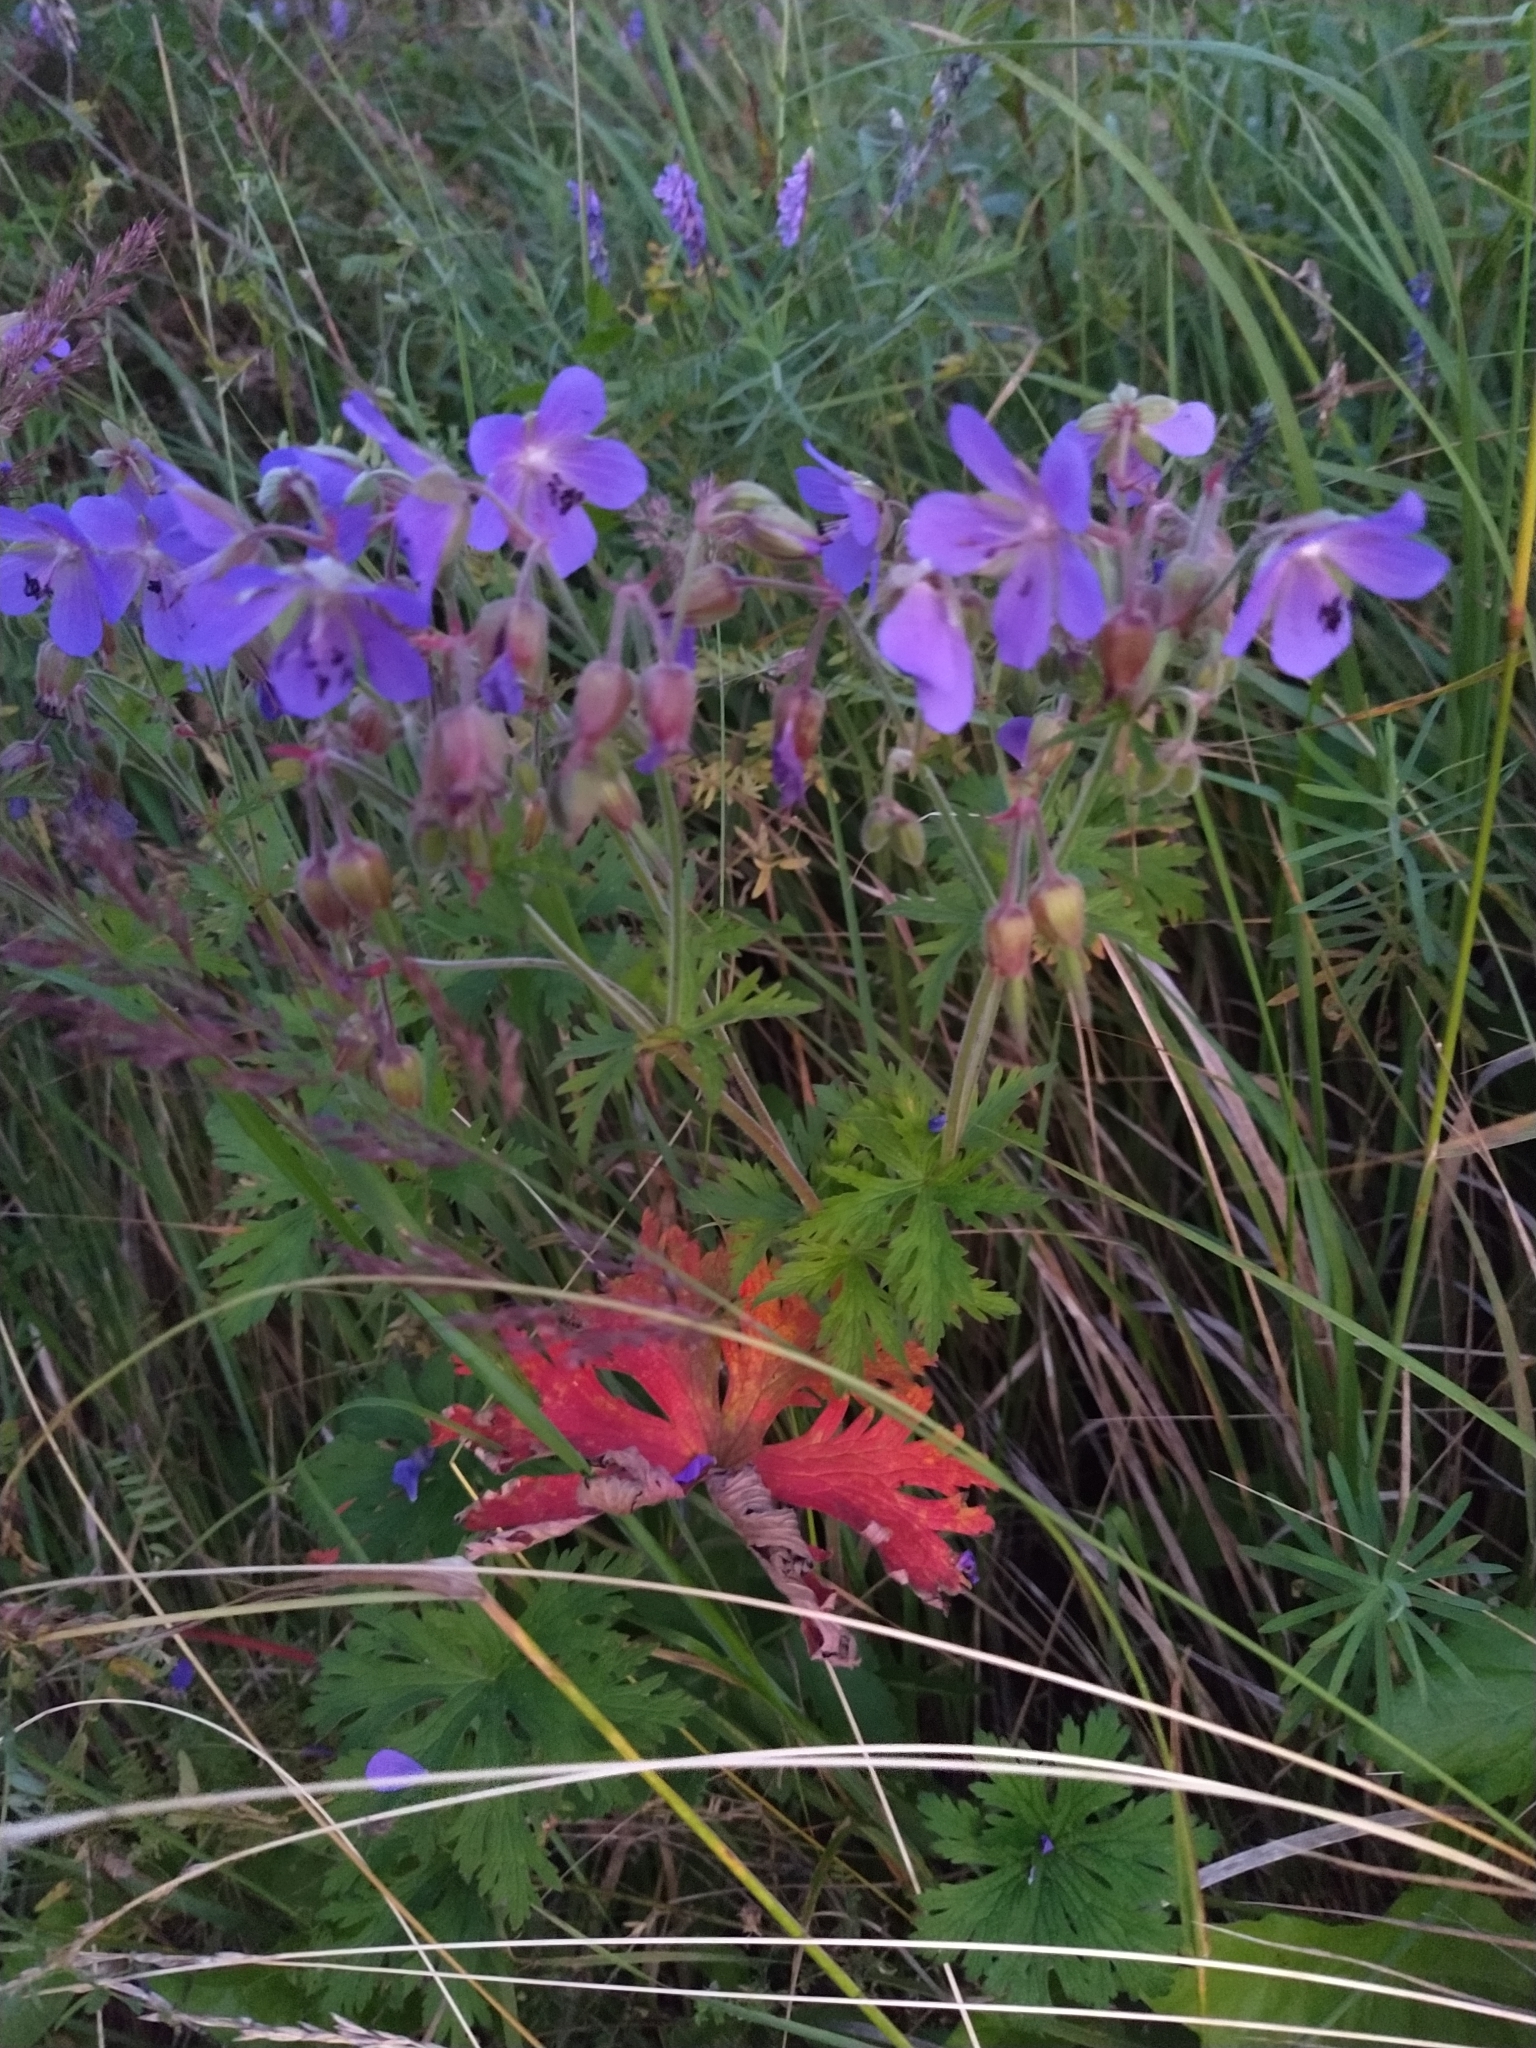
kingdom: Plantae
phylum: Tracheophyta
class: Magnoliopsida
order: Geraniales
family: Geraniaceae
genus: Geranium
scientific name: Geranium pratense
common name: Meadow crane's-bill
